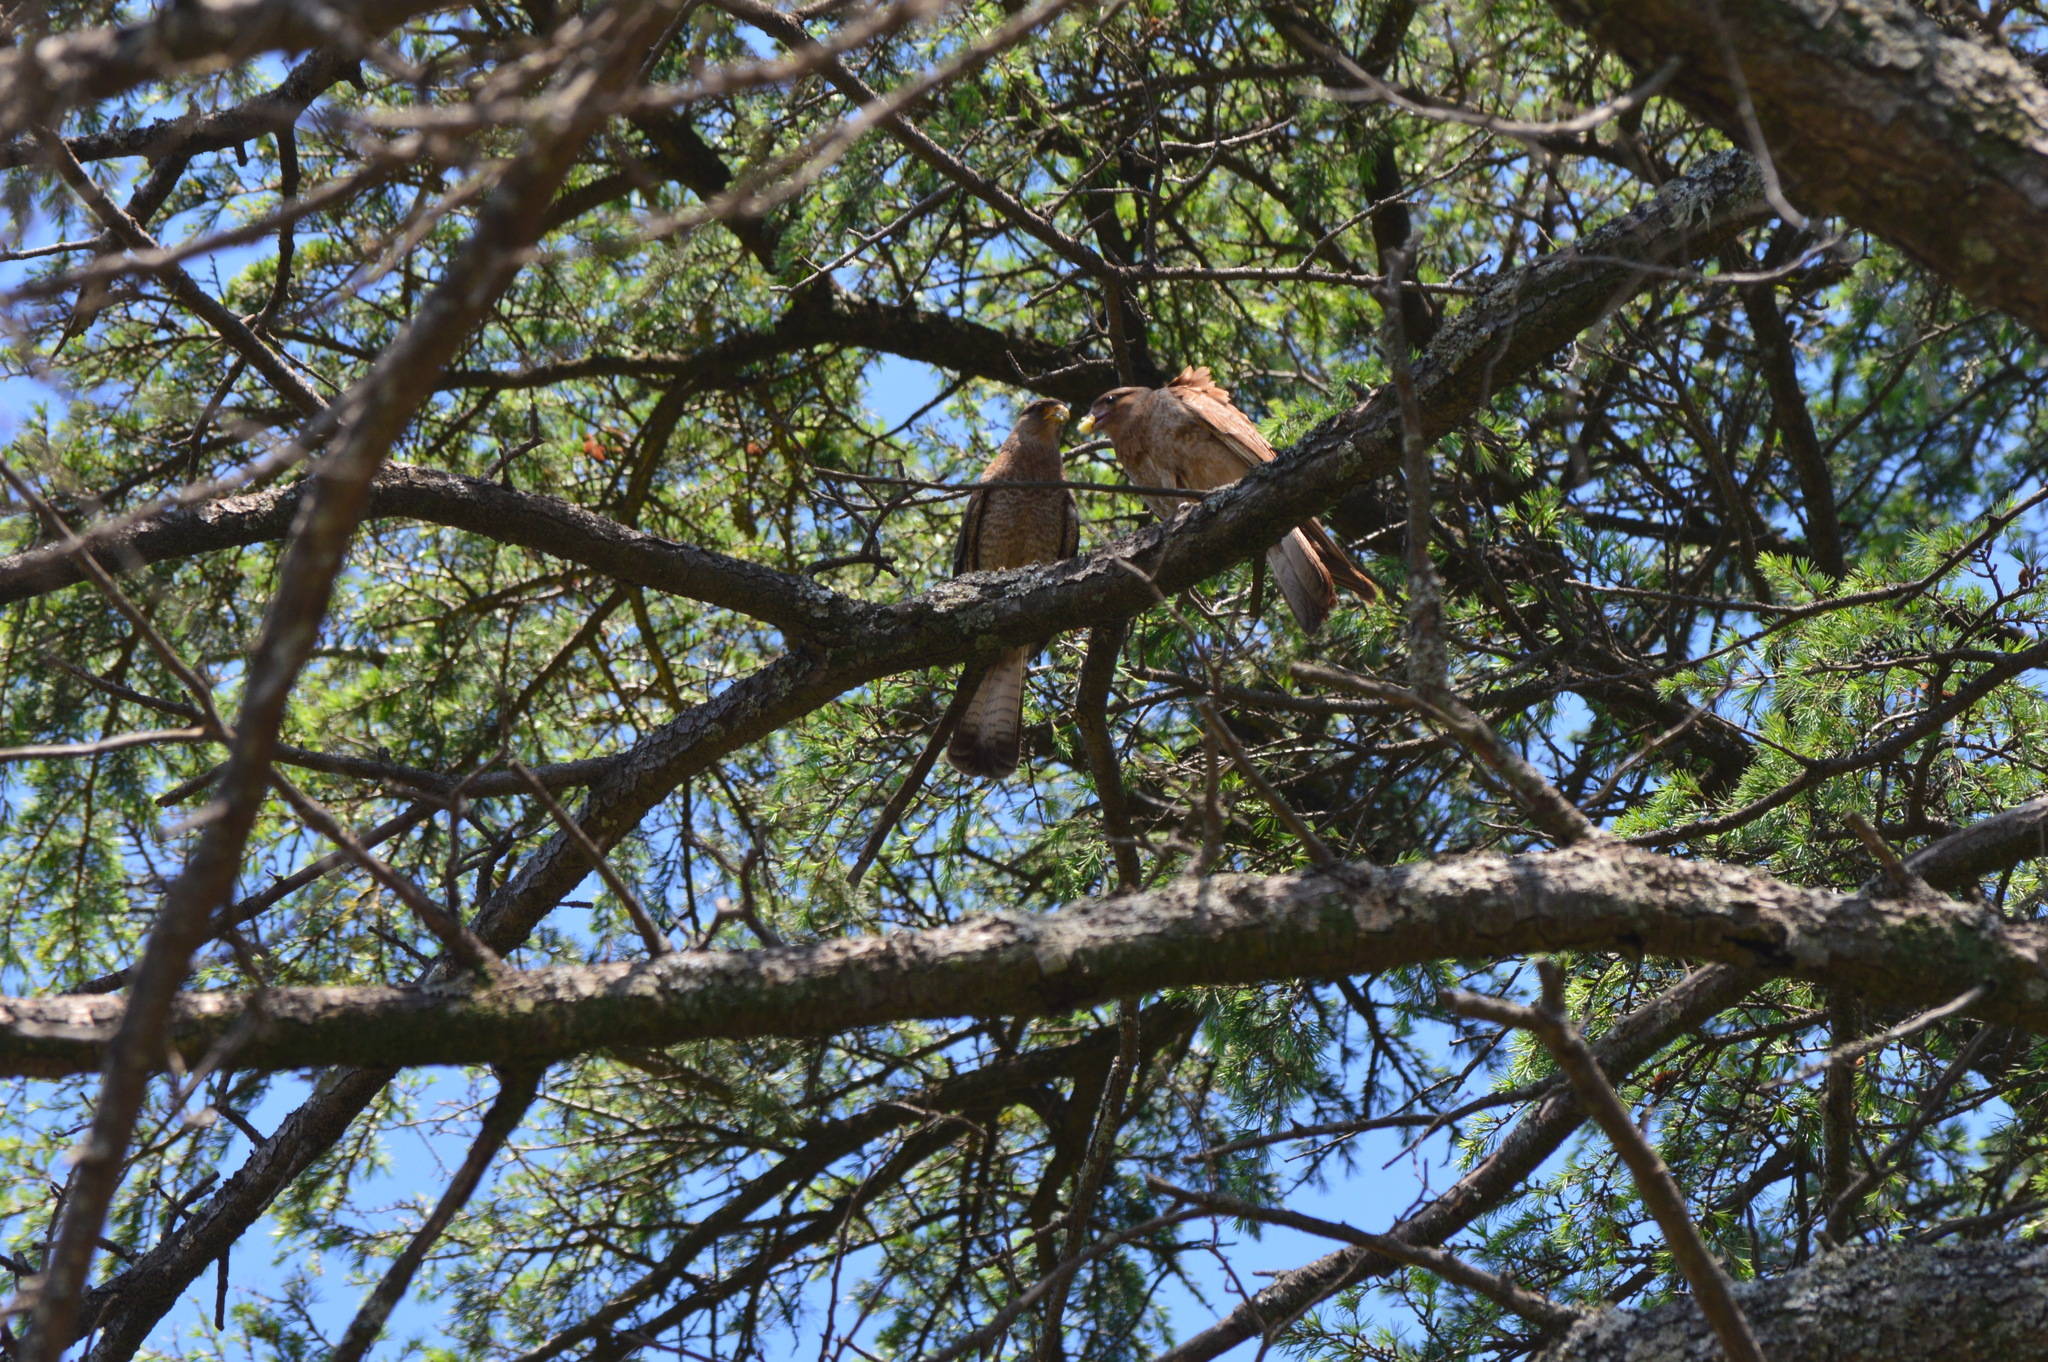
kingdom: Animalia
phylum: Chordata
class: Aves
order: Falconiformes
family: Falconidae
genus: Daptrius
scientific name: Daptrius
